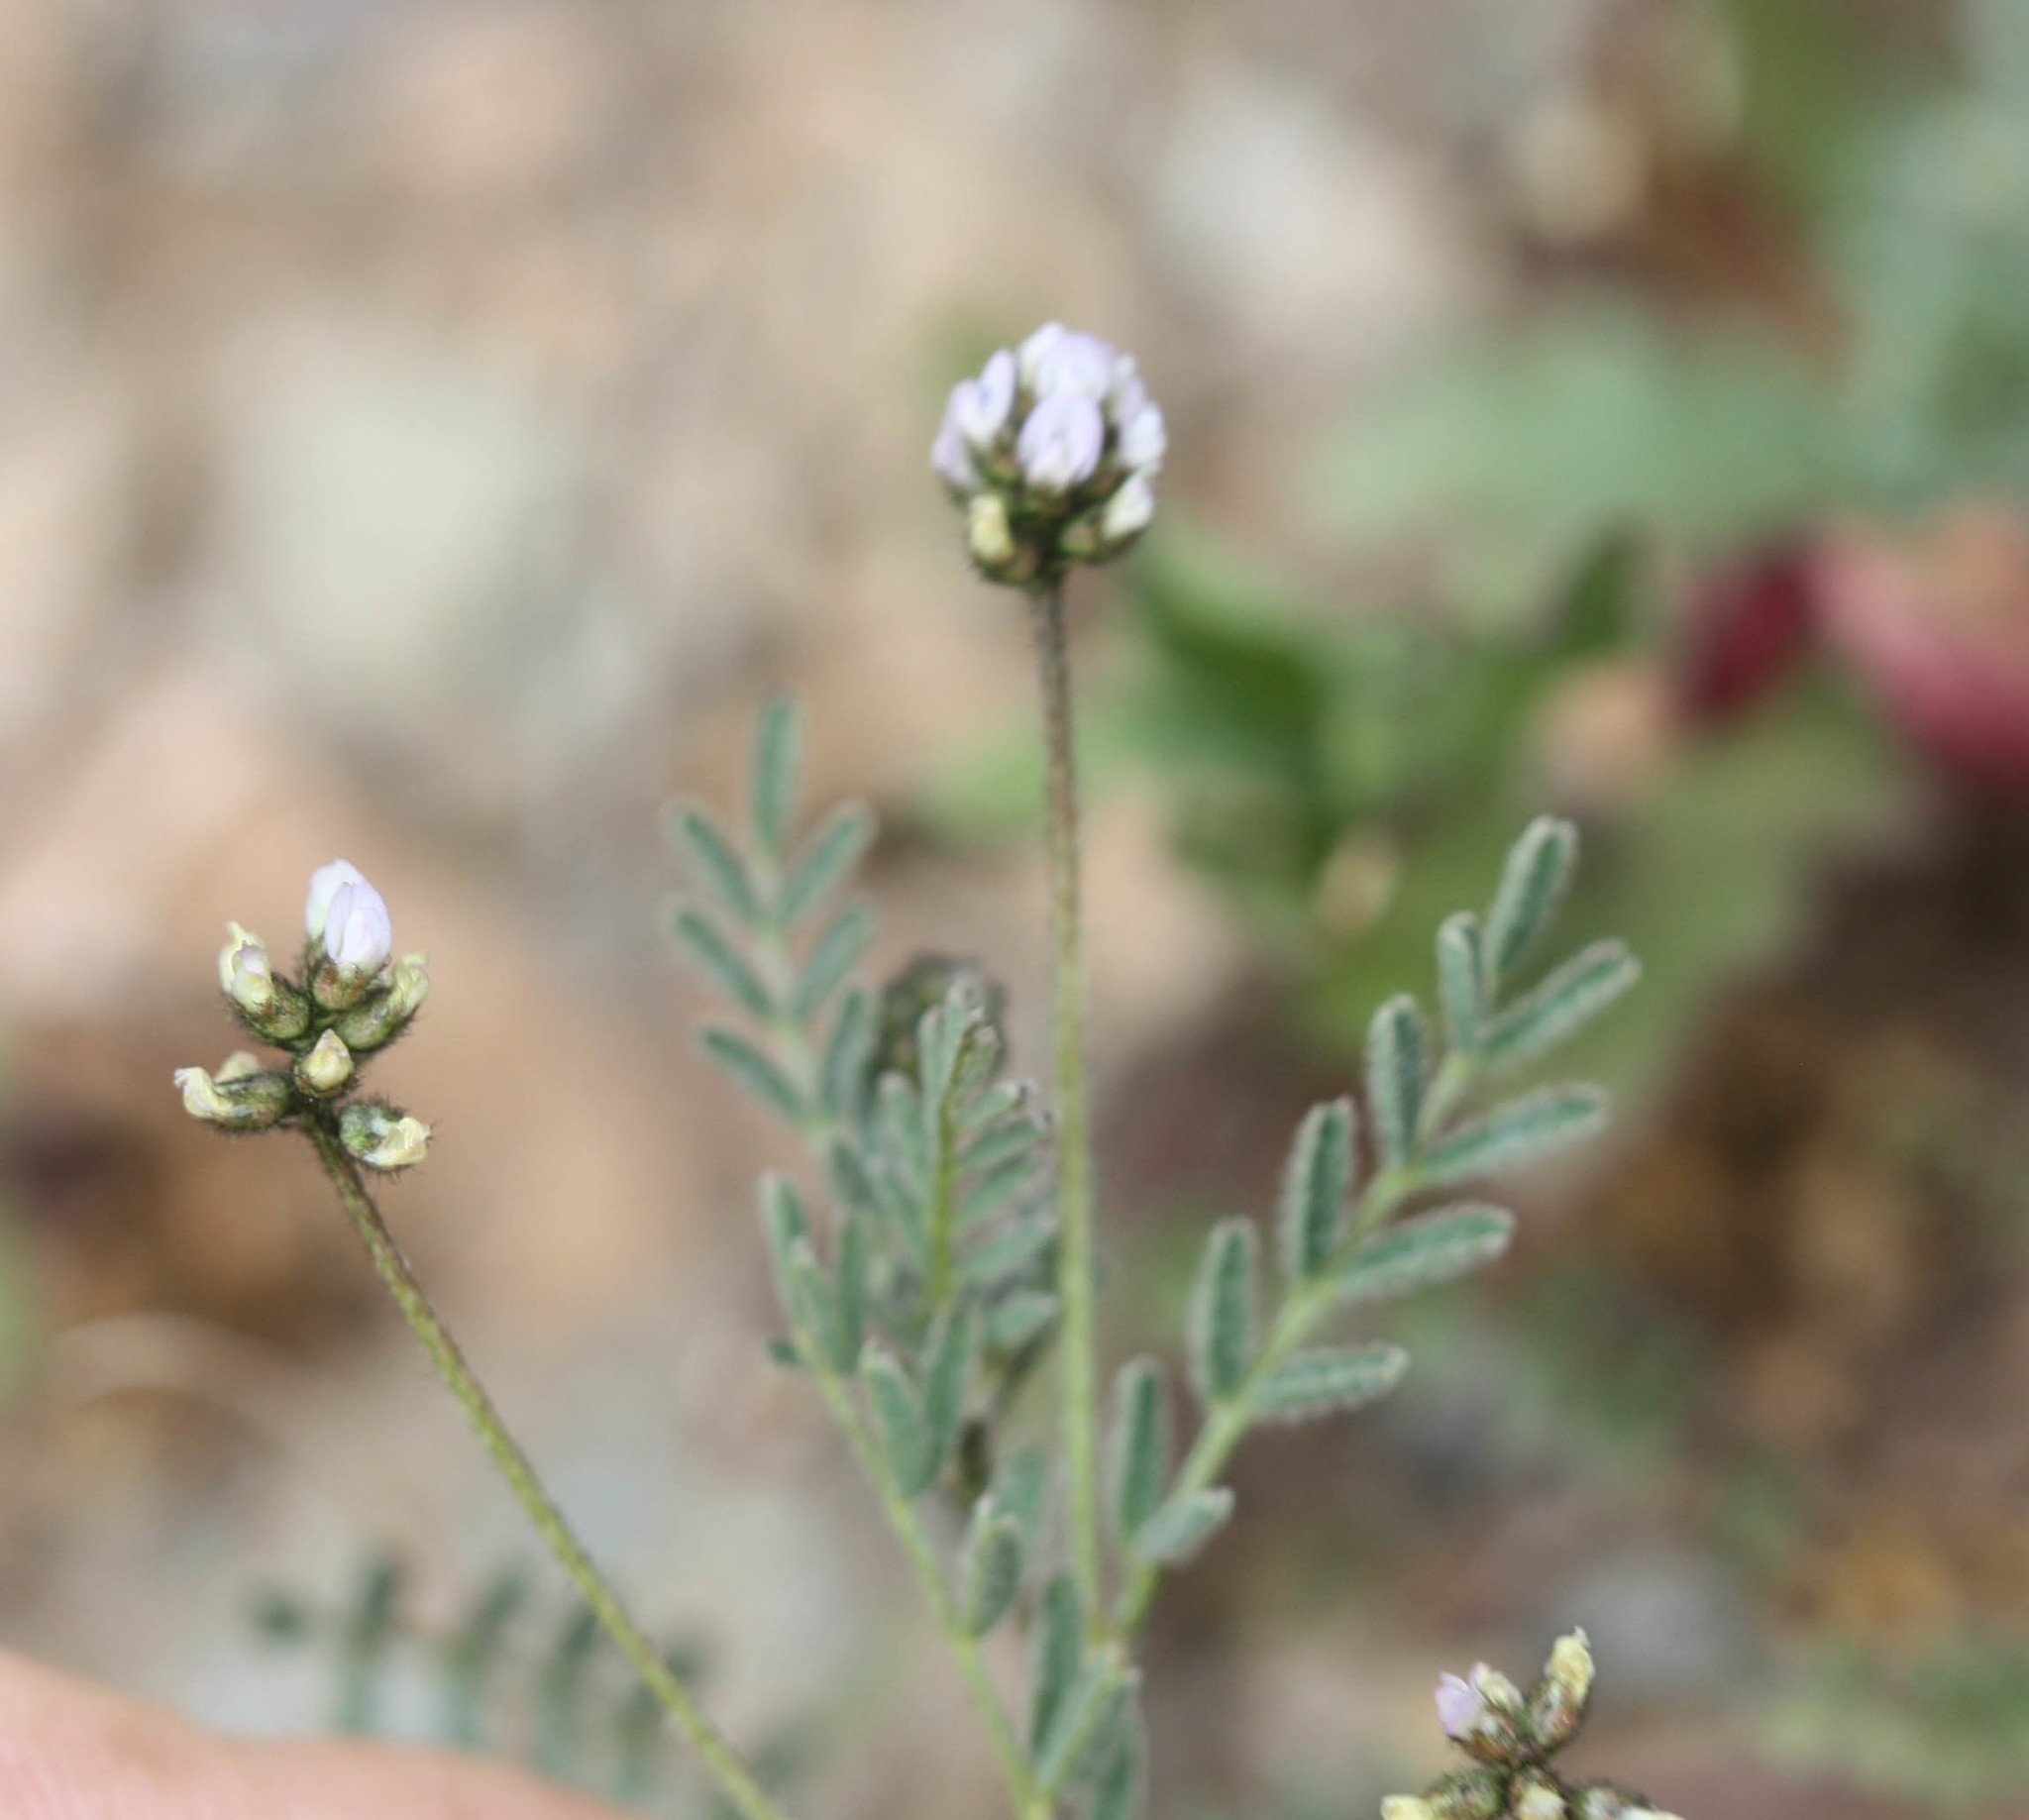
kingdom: Plantae
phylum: Tracheophyta
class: Magnoliopsida
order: Fabales
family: Fabaceae
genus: Astragalus
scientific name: Astragalus gambelianus
